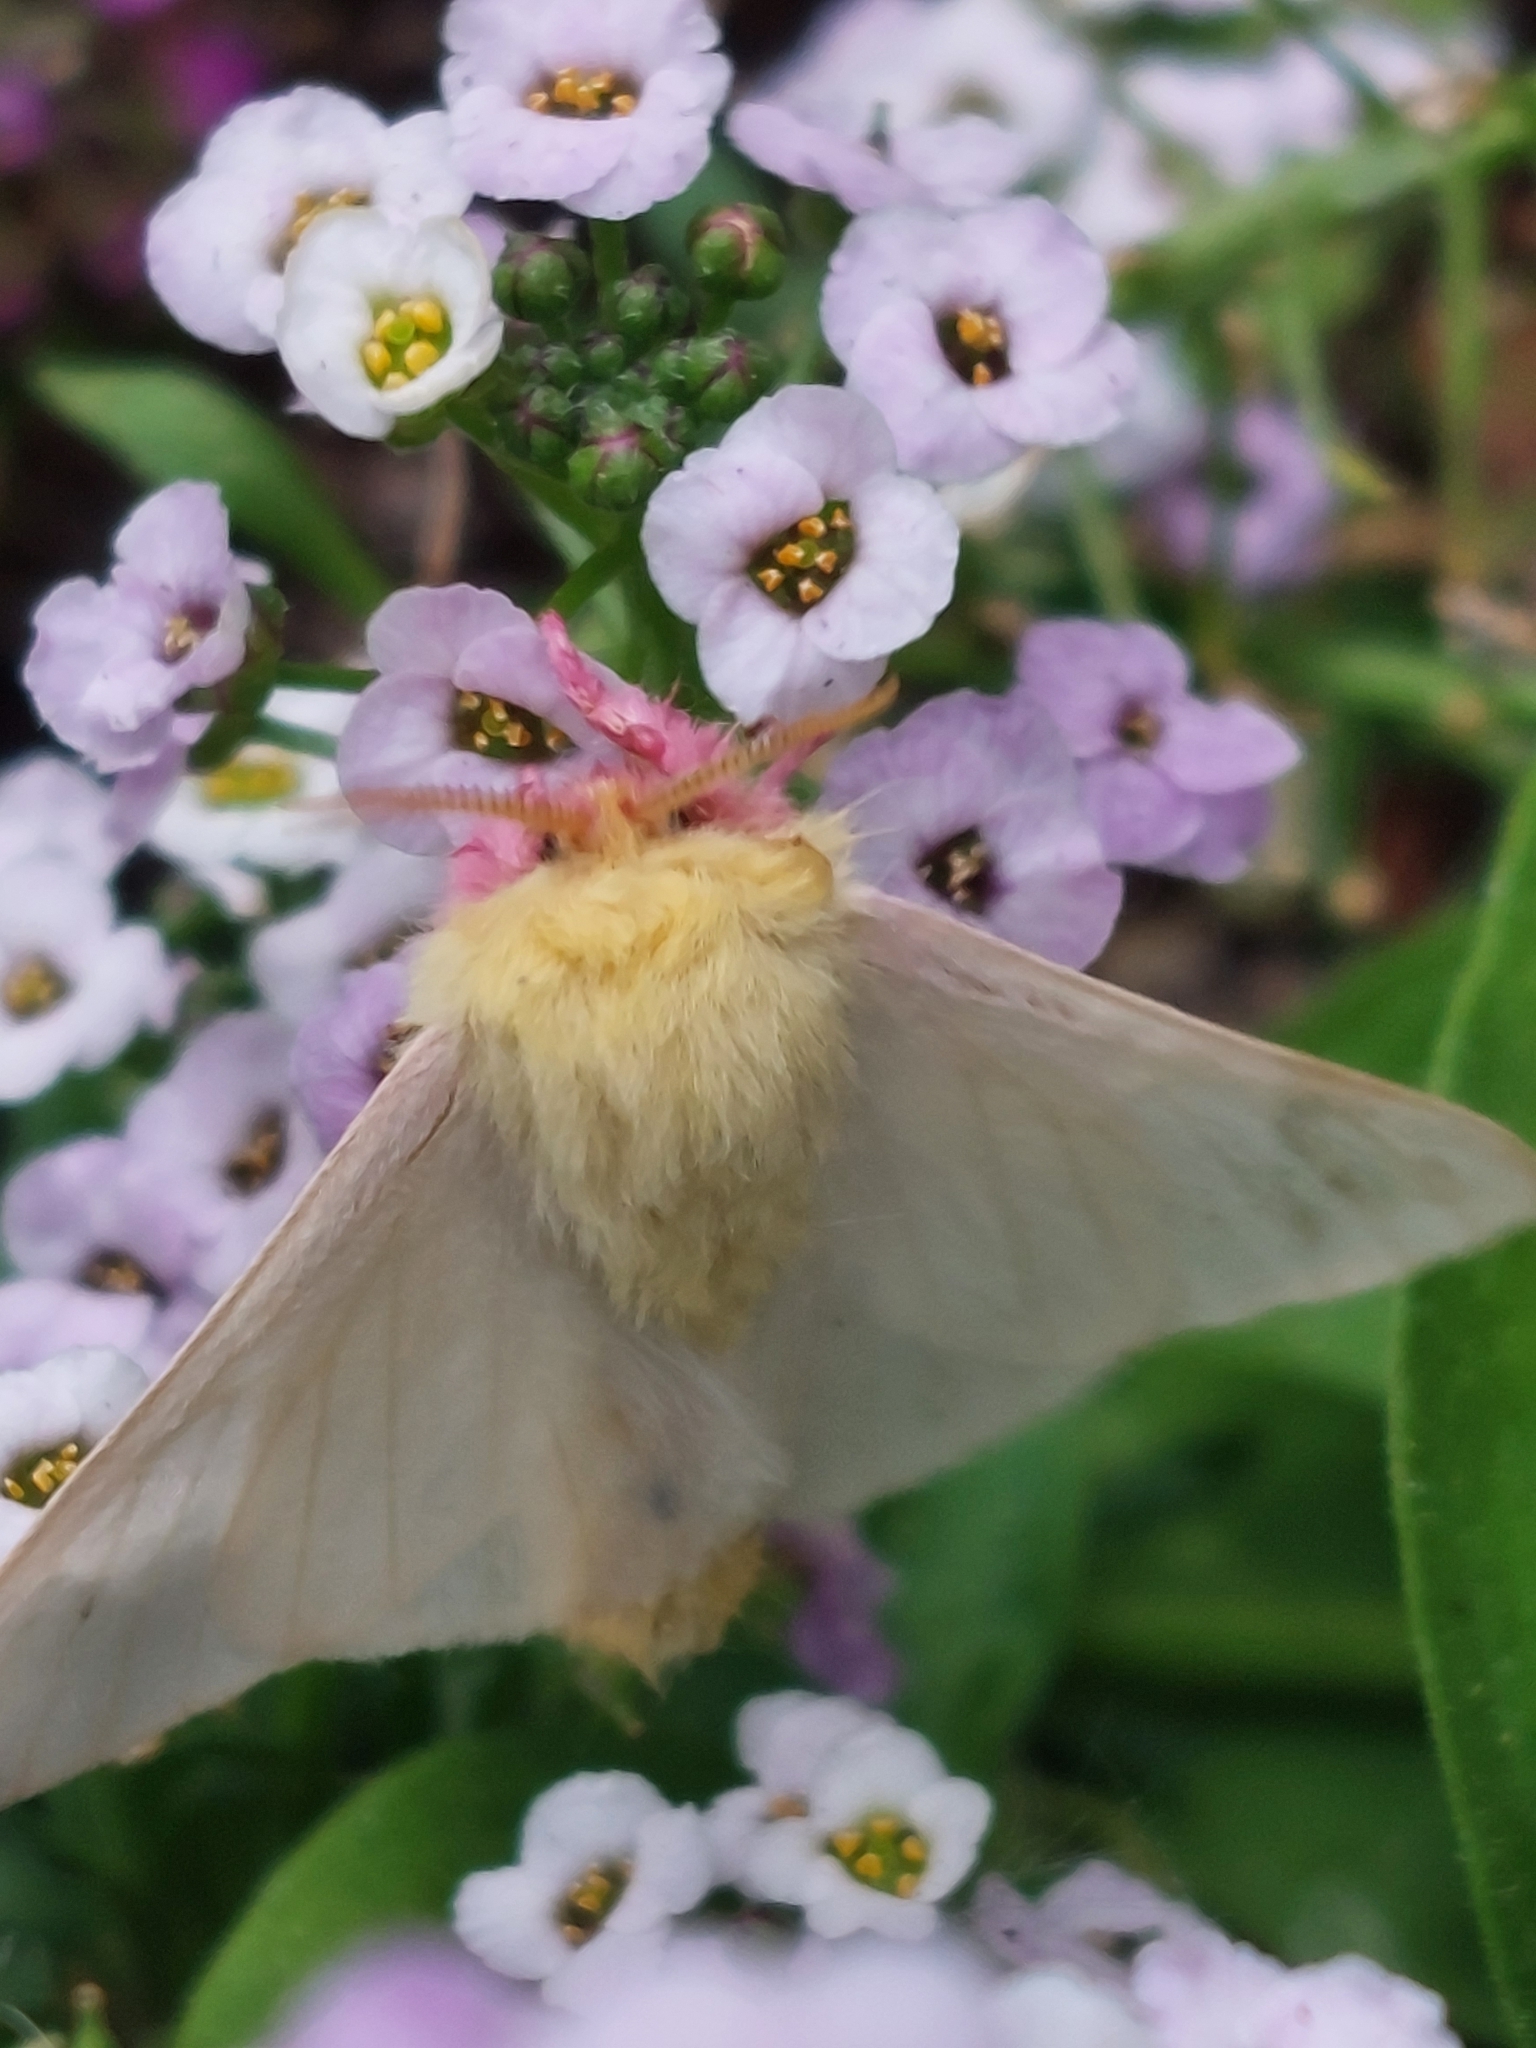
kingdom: Animalia
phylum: Arthropoda
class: Insecta
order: Lepidoptera
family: Saturniidae
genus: Dryocampa
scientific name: Dryocampa rubicunda
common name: Rosy maple moth
